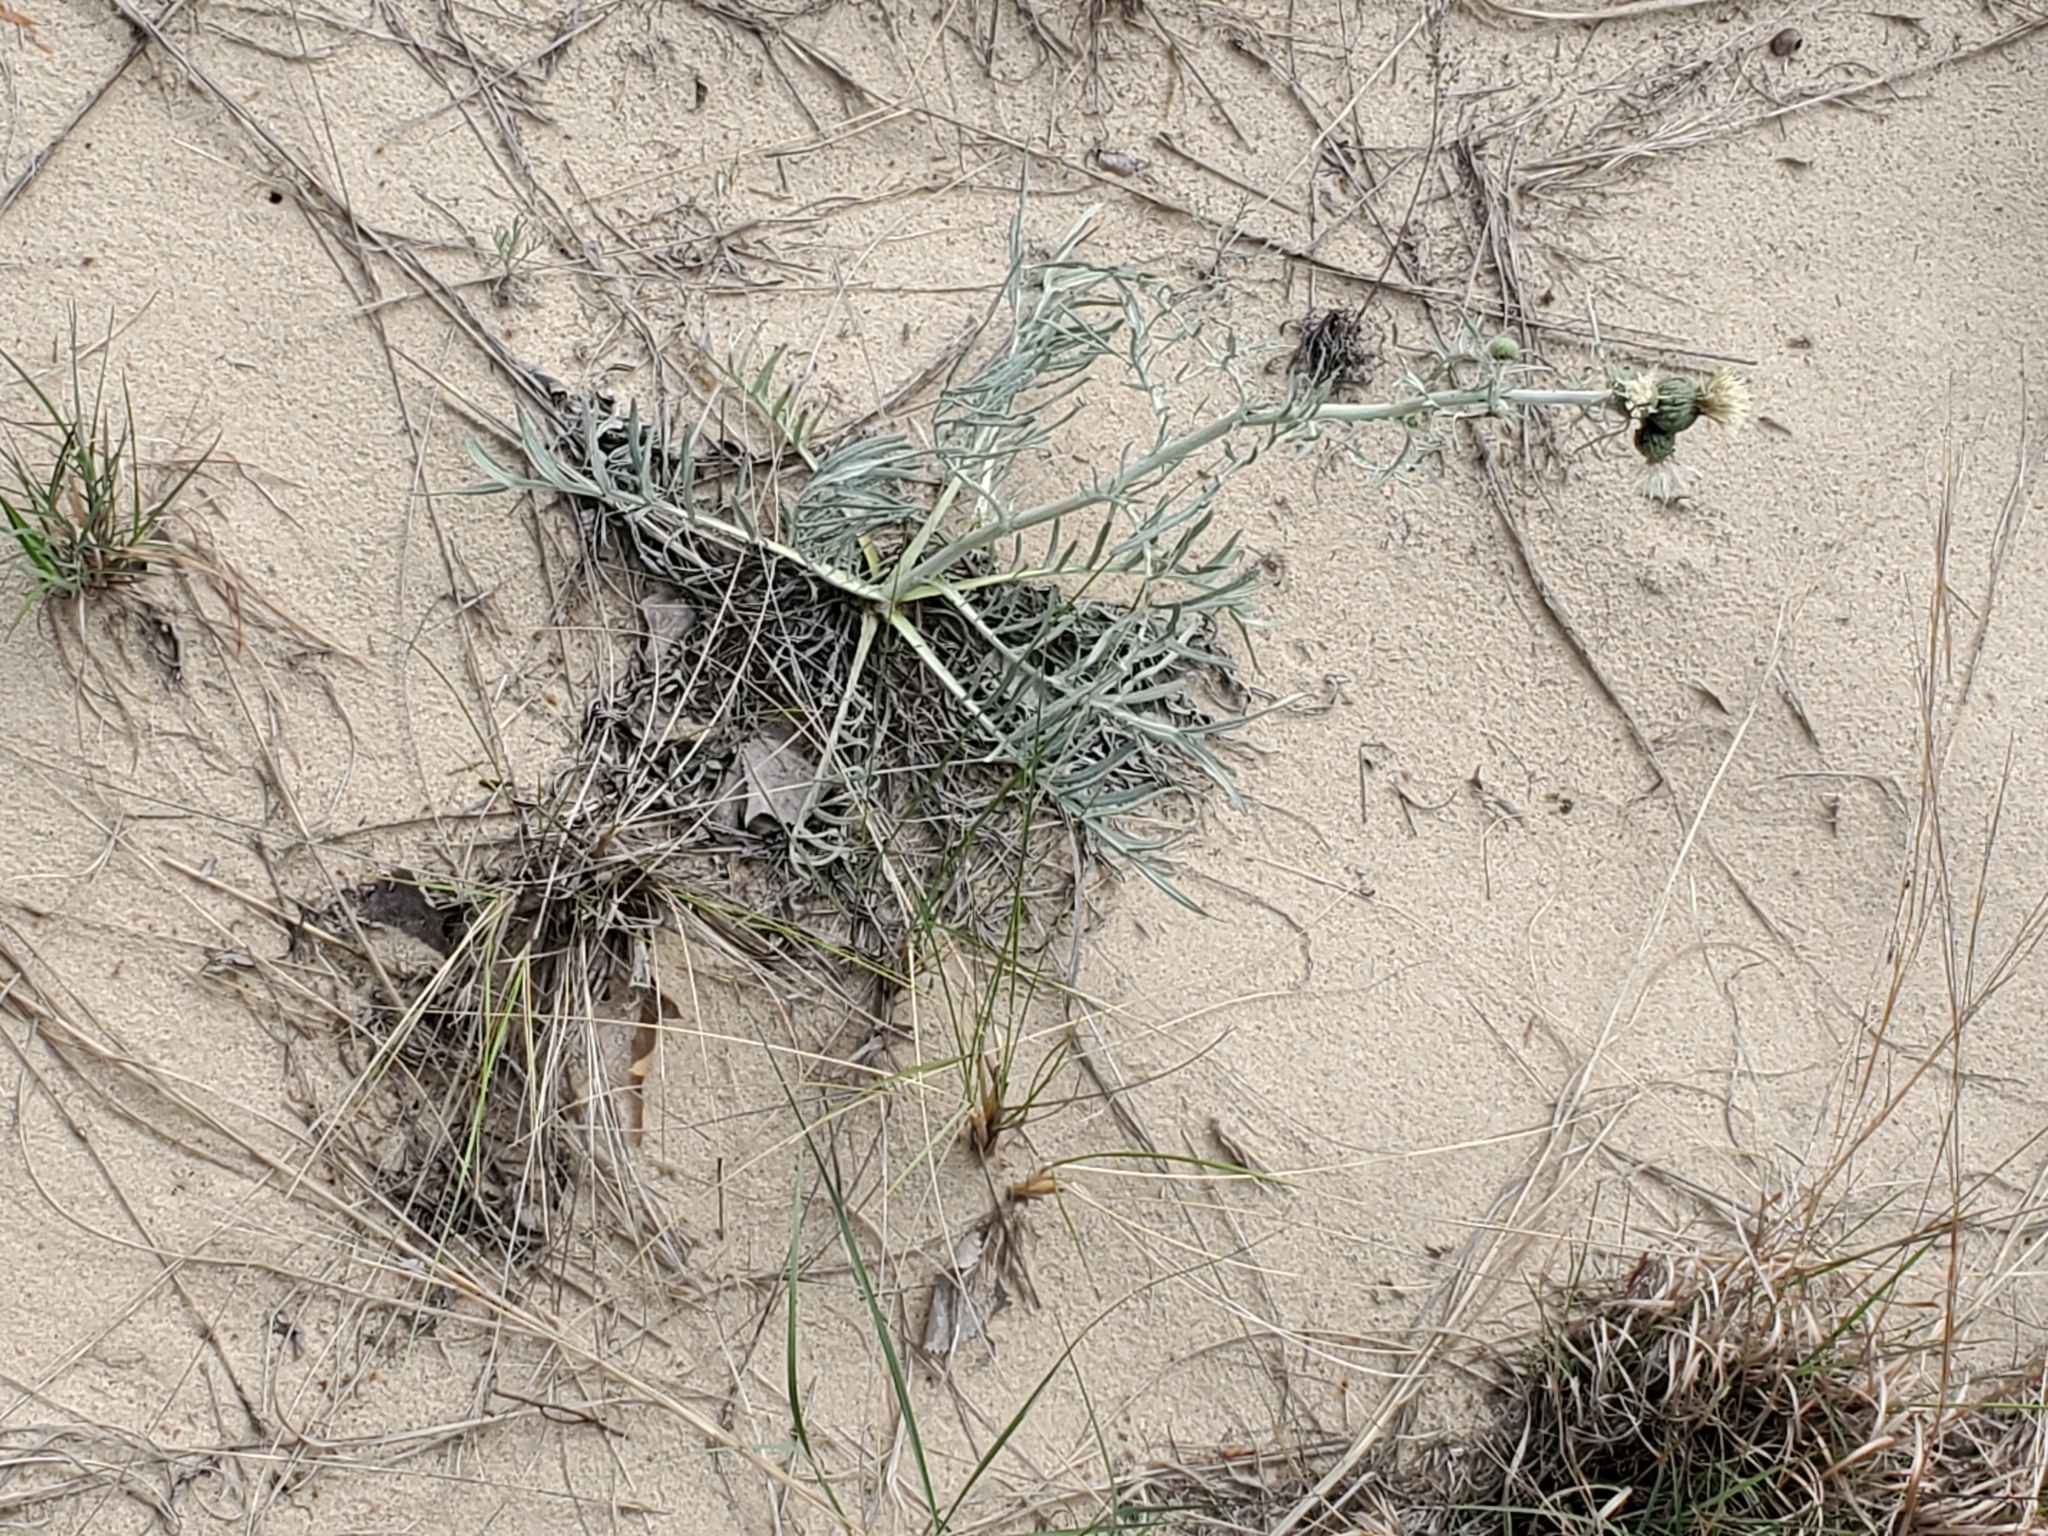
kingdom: Plantae
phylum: Tracheophyta
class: Magnoliopsida
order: Asterales
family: Asteraceae
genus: Cirsium
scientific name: Cirsium pitcheri
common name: Dune thistle
